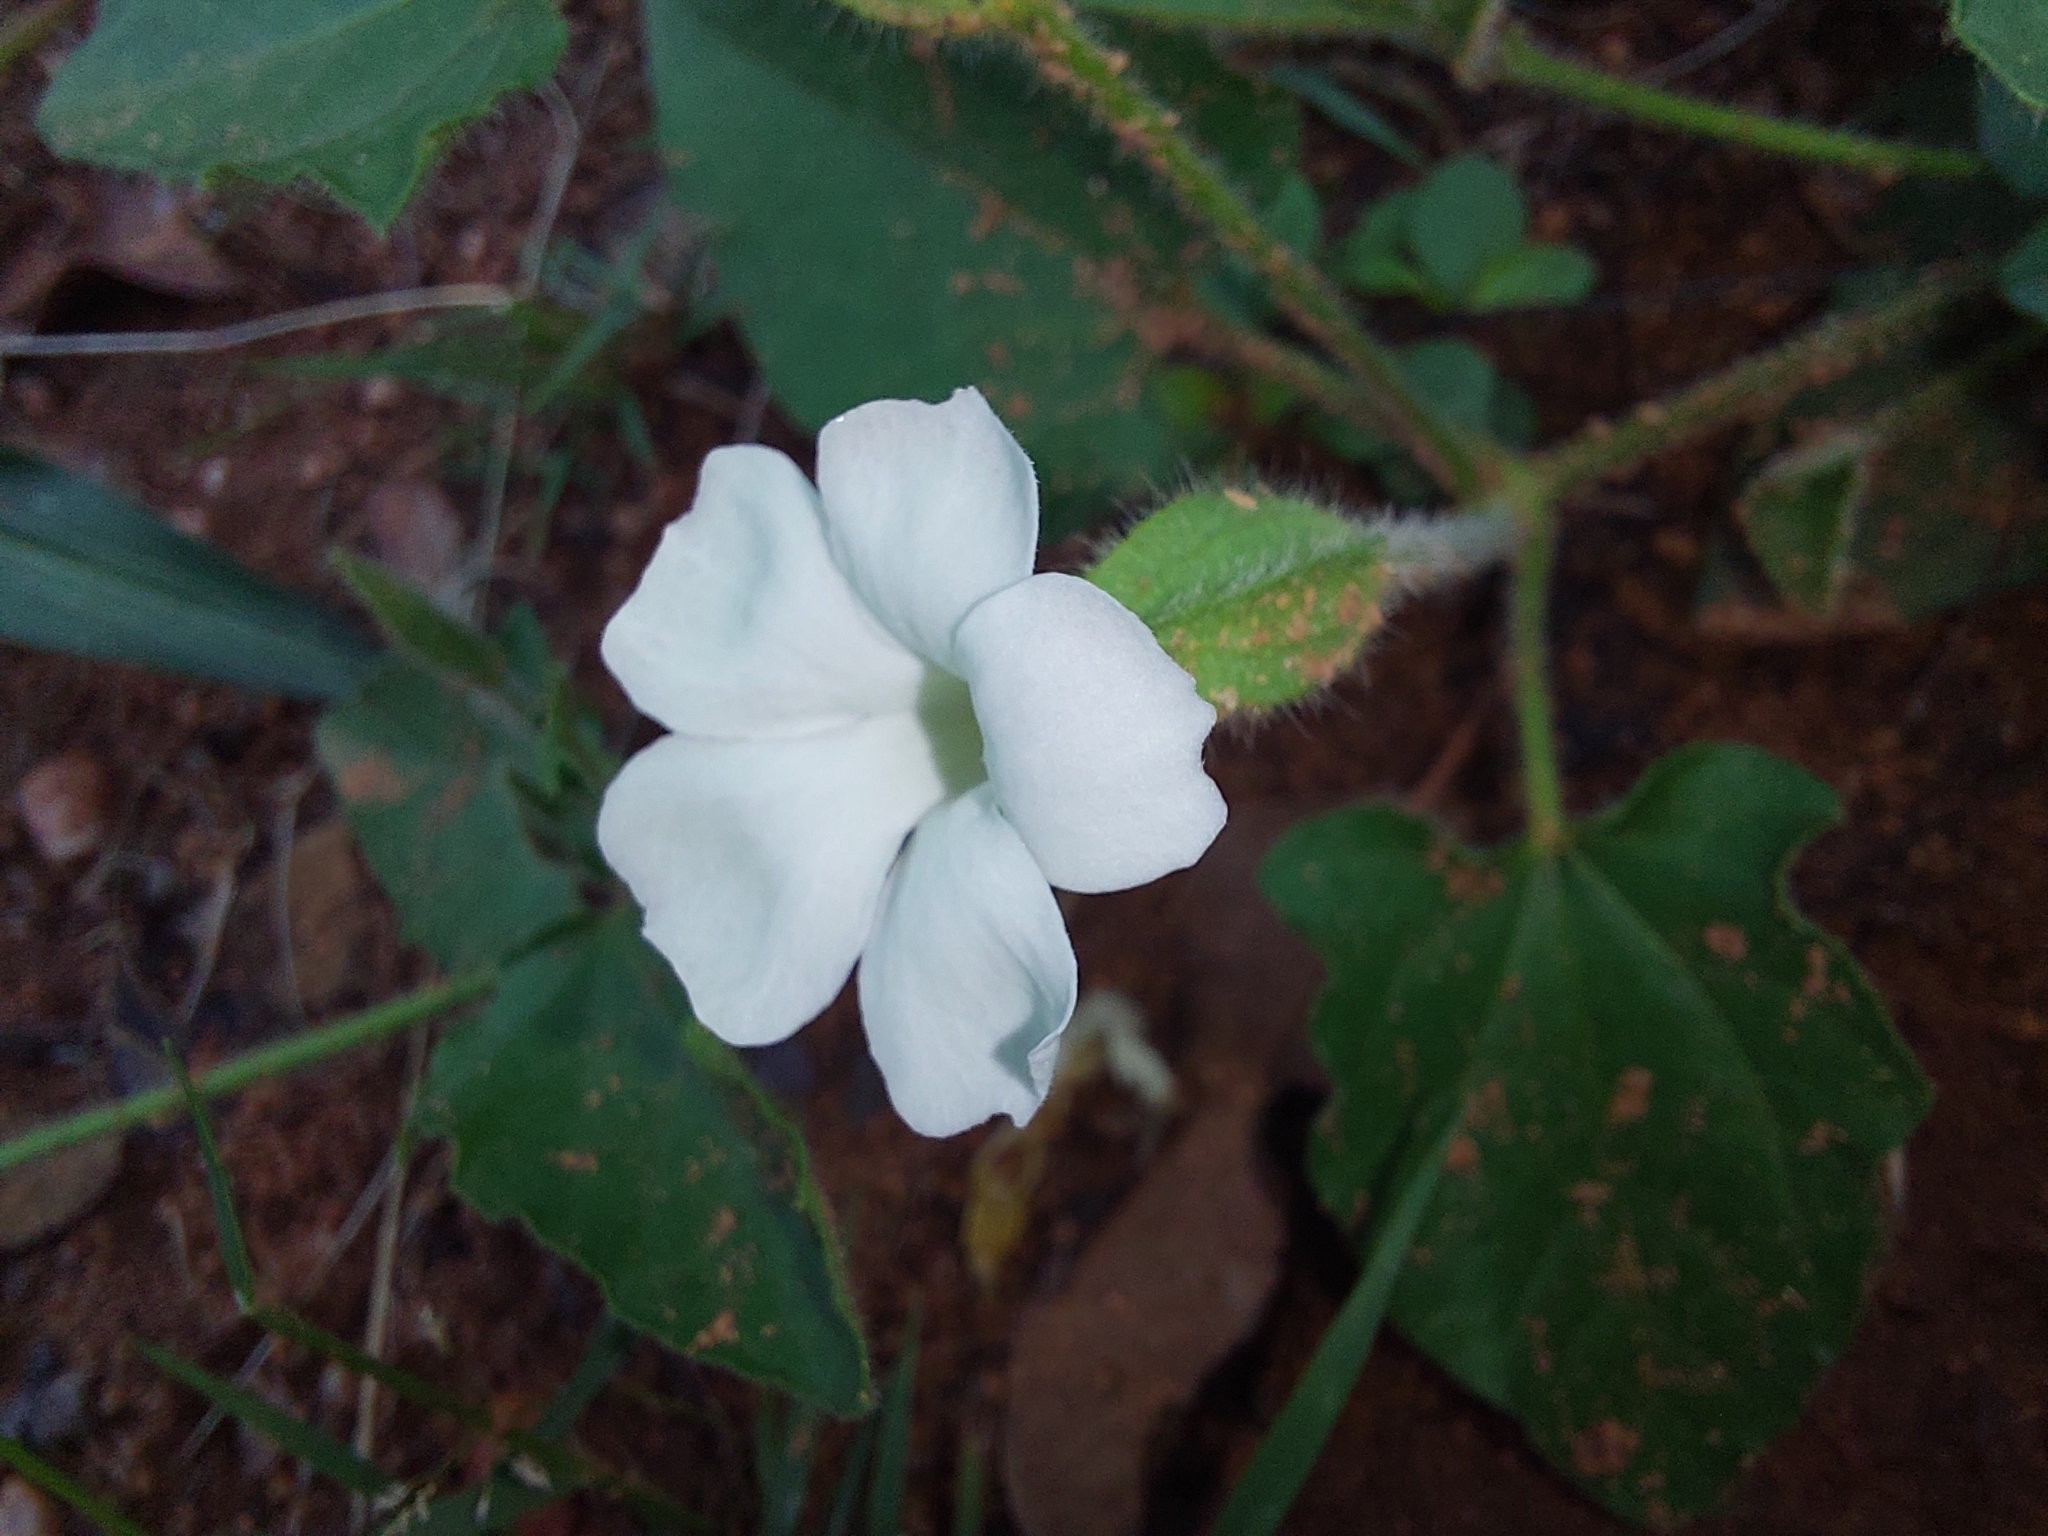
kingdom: Plantae
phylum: Tracheophyta
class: Magnoliopsida
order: Lamiales
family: Acanthaceae
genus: Thunbergia
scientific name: Thunbergia neglecta
